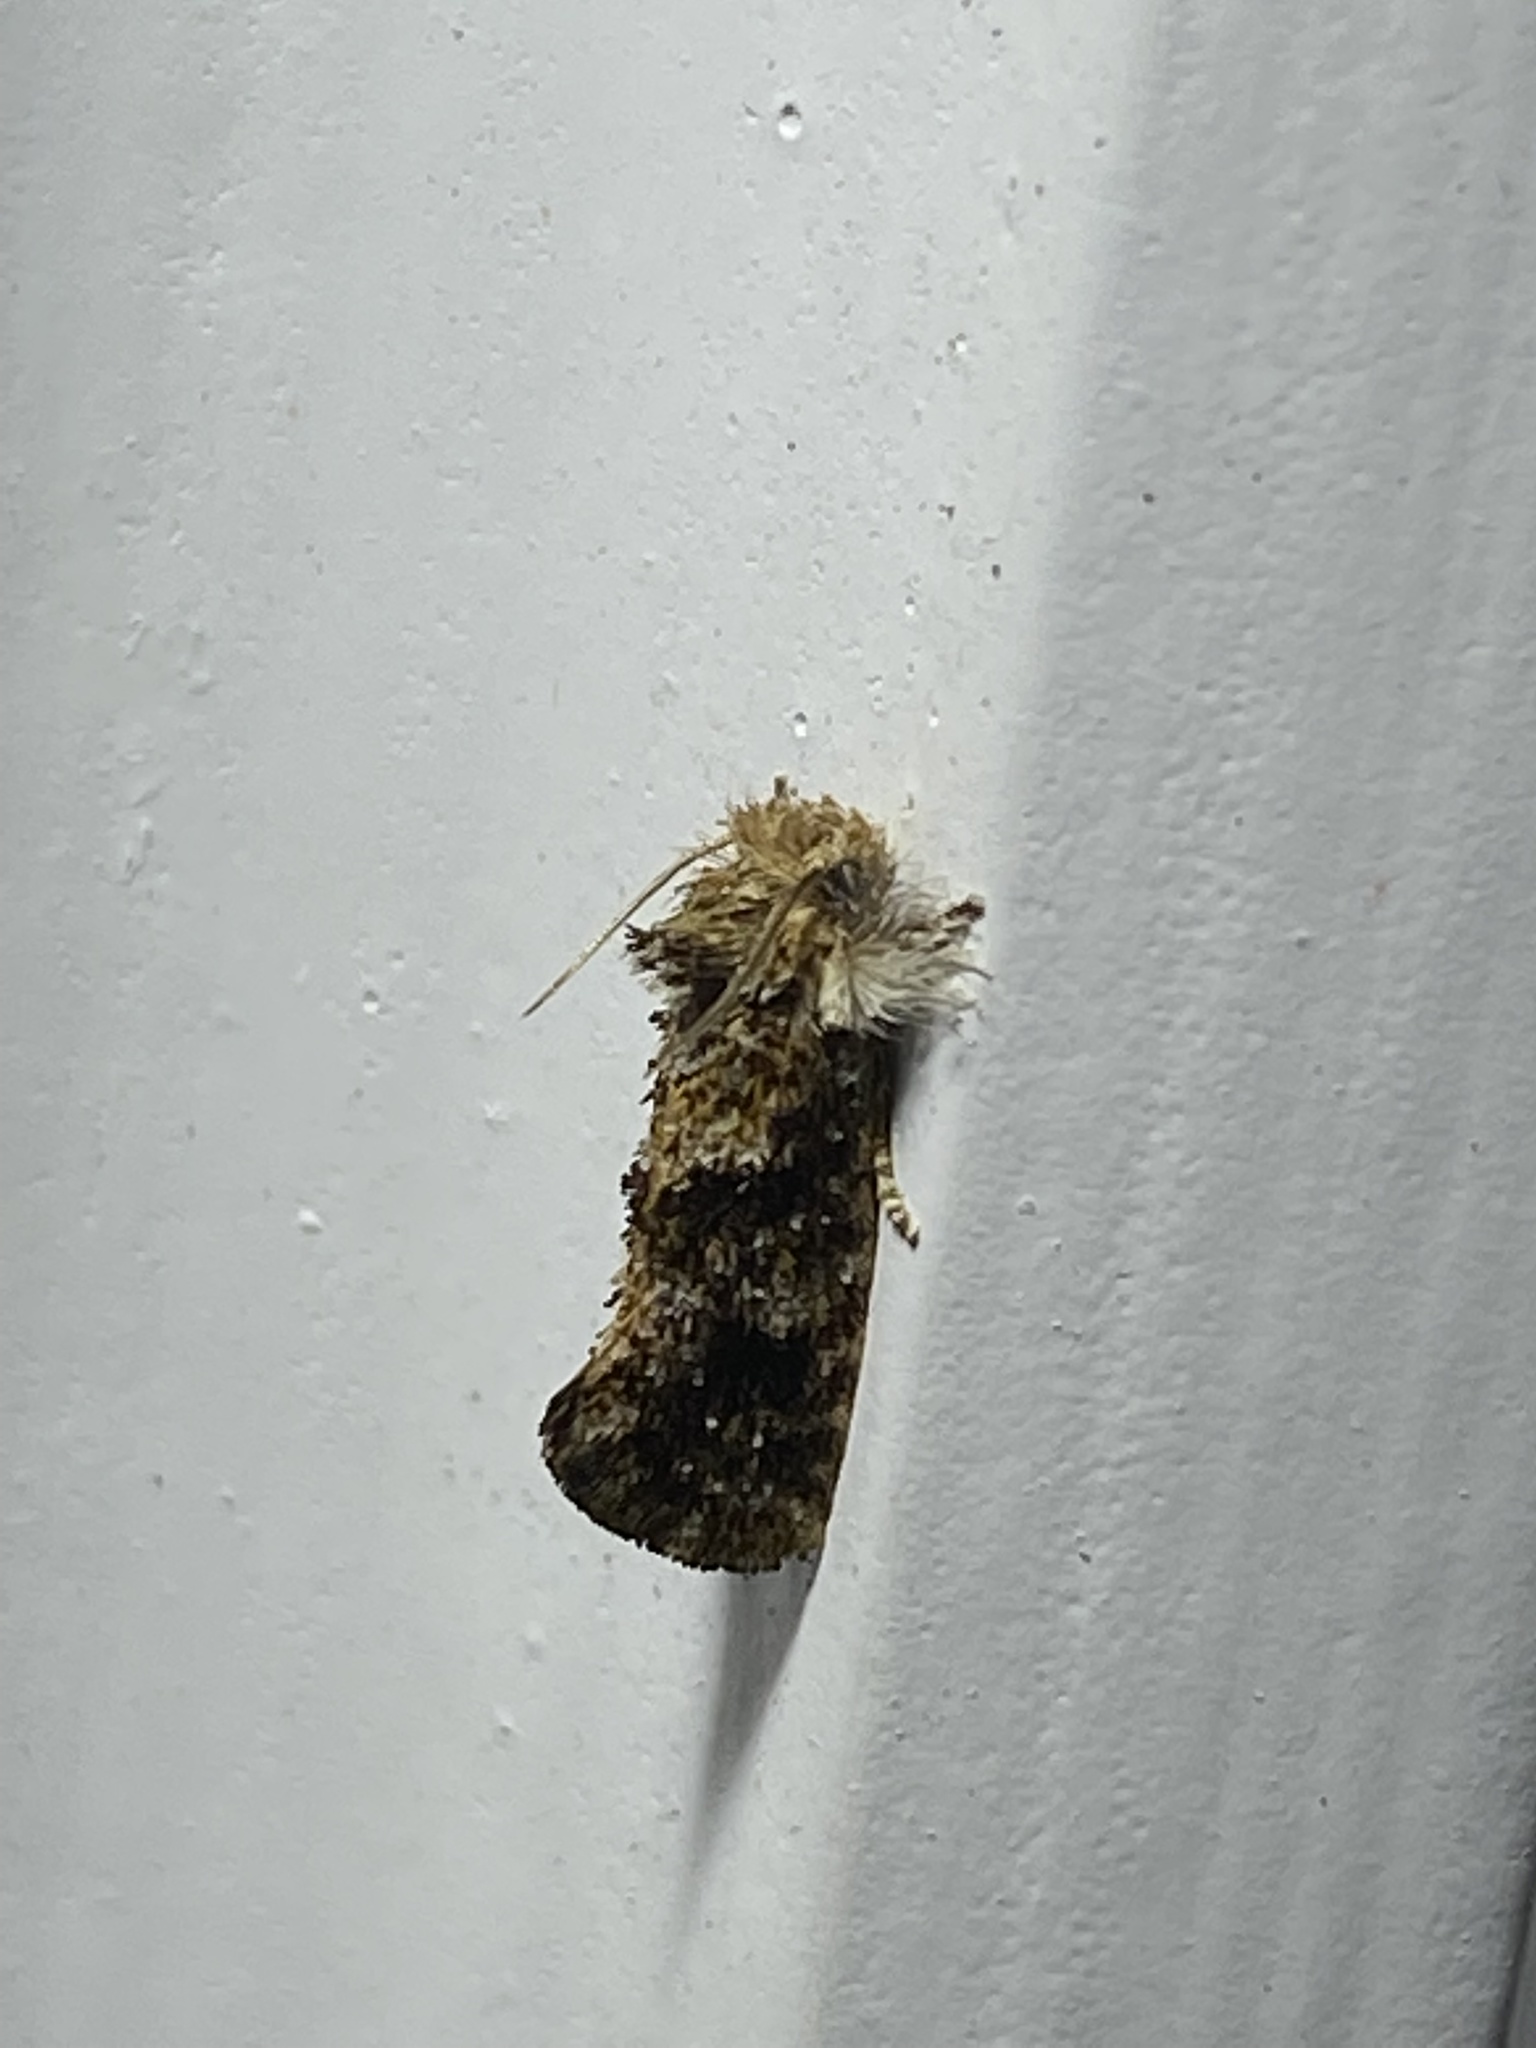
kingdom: Animalia
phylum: Arthropoda
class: Insecta
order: Lepidoptera
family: Tineidae
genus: Acrolophus
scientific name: Acrolophus panamae
